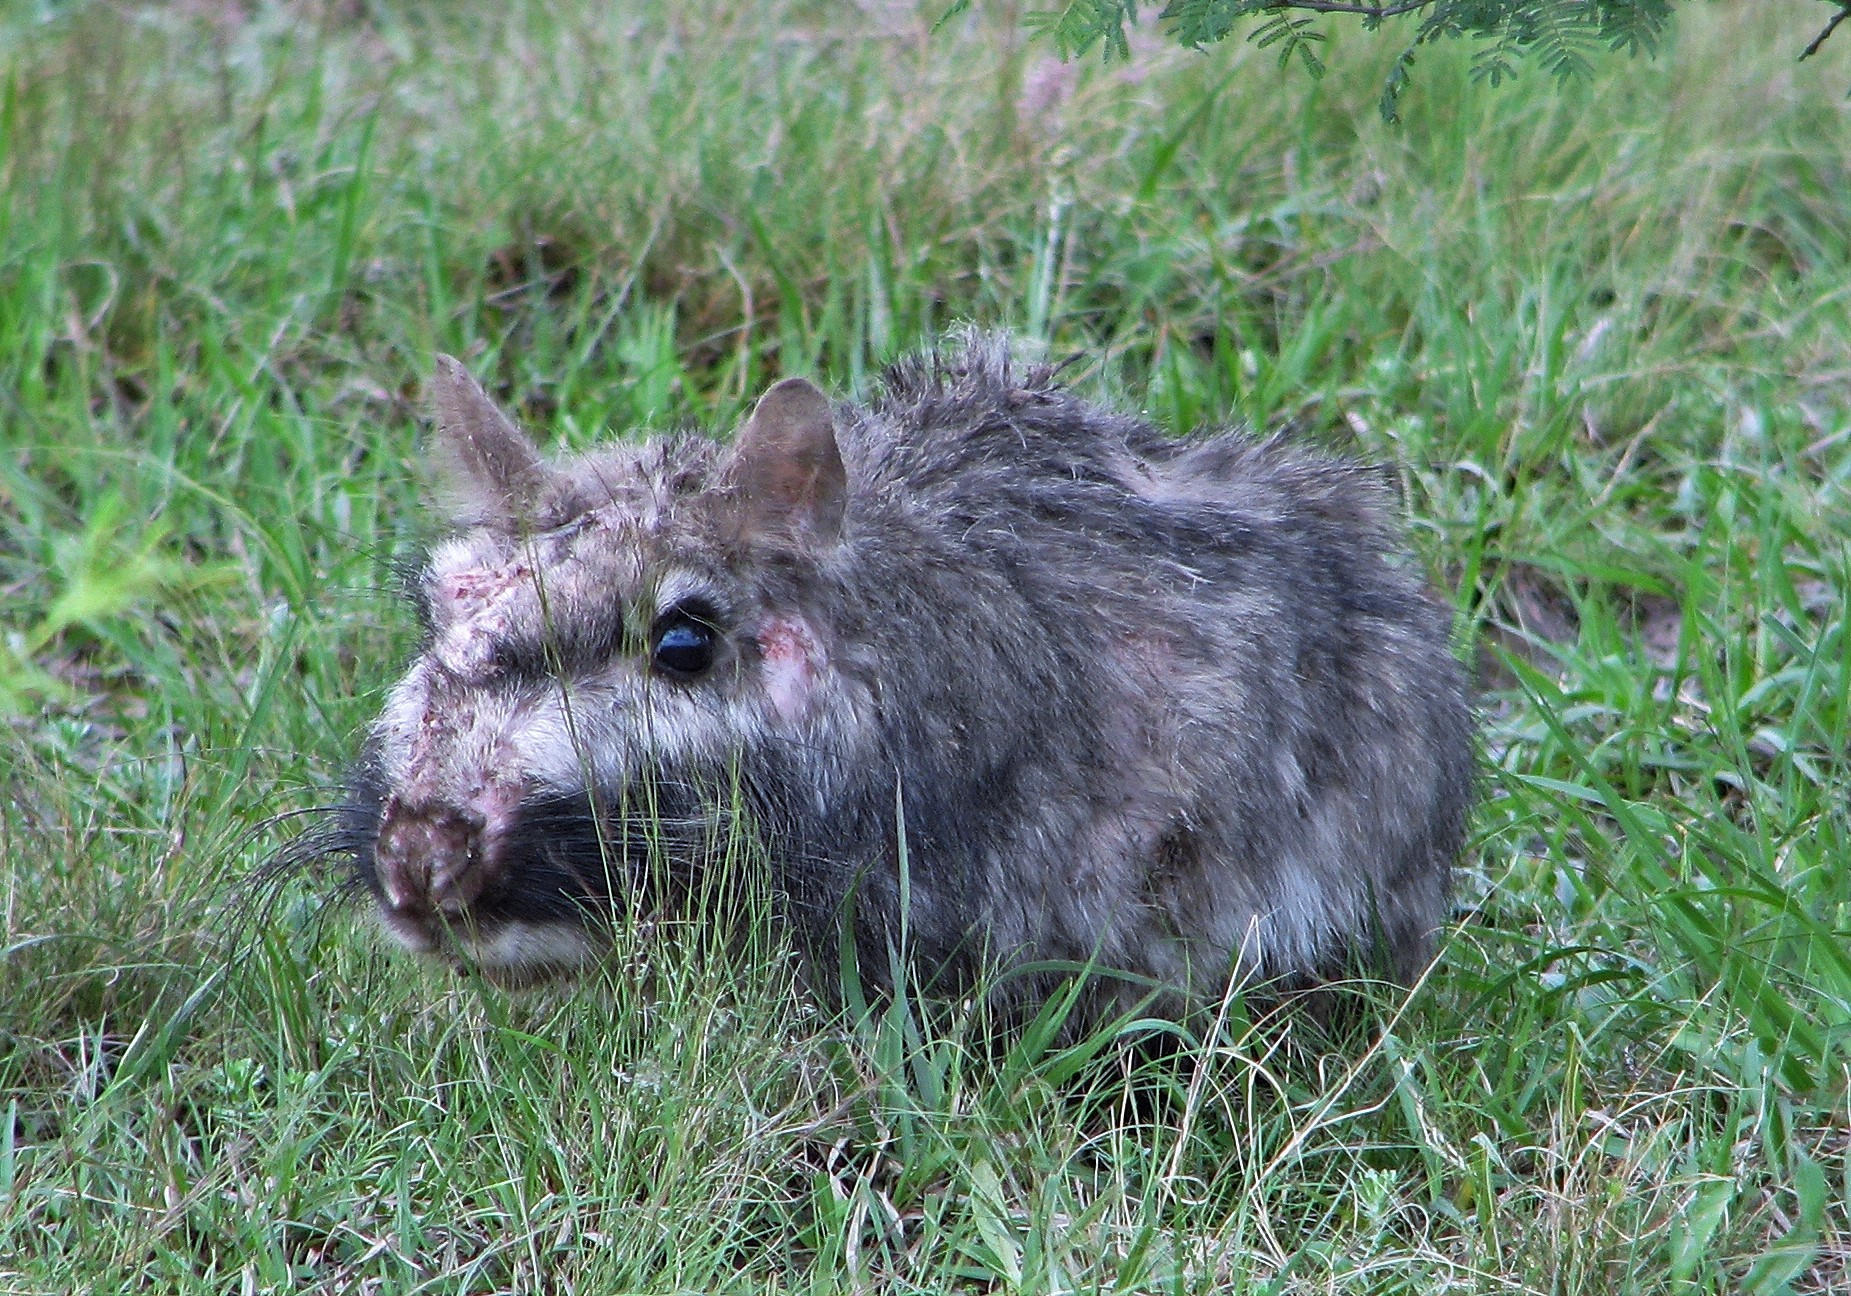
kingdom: Animalia
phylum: Chordata
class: Mammalia
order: Rodentia
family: Chinchillidae
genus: Lagostomus
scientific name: Lagostomus maximus
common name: Plains viscacha
